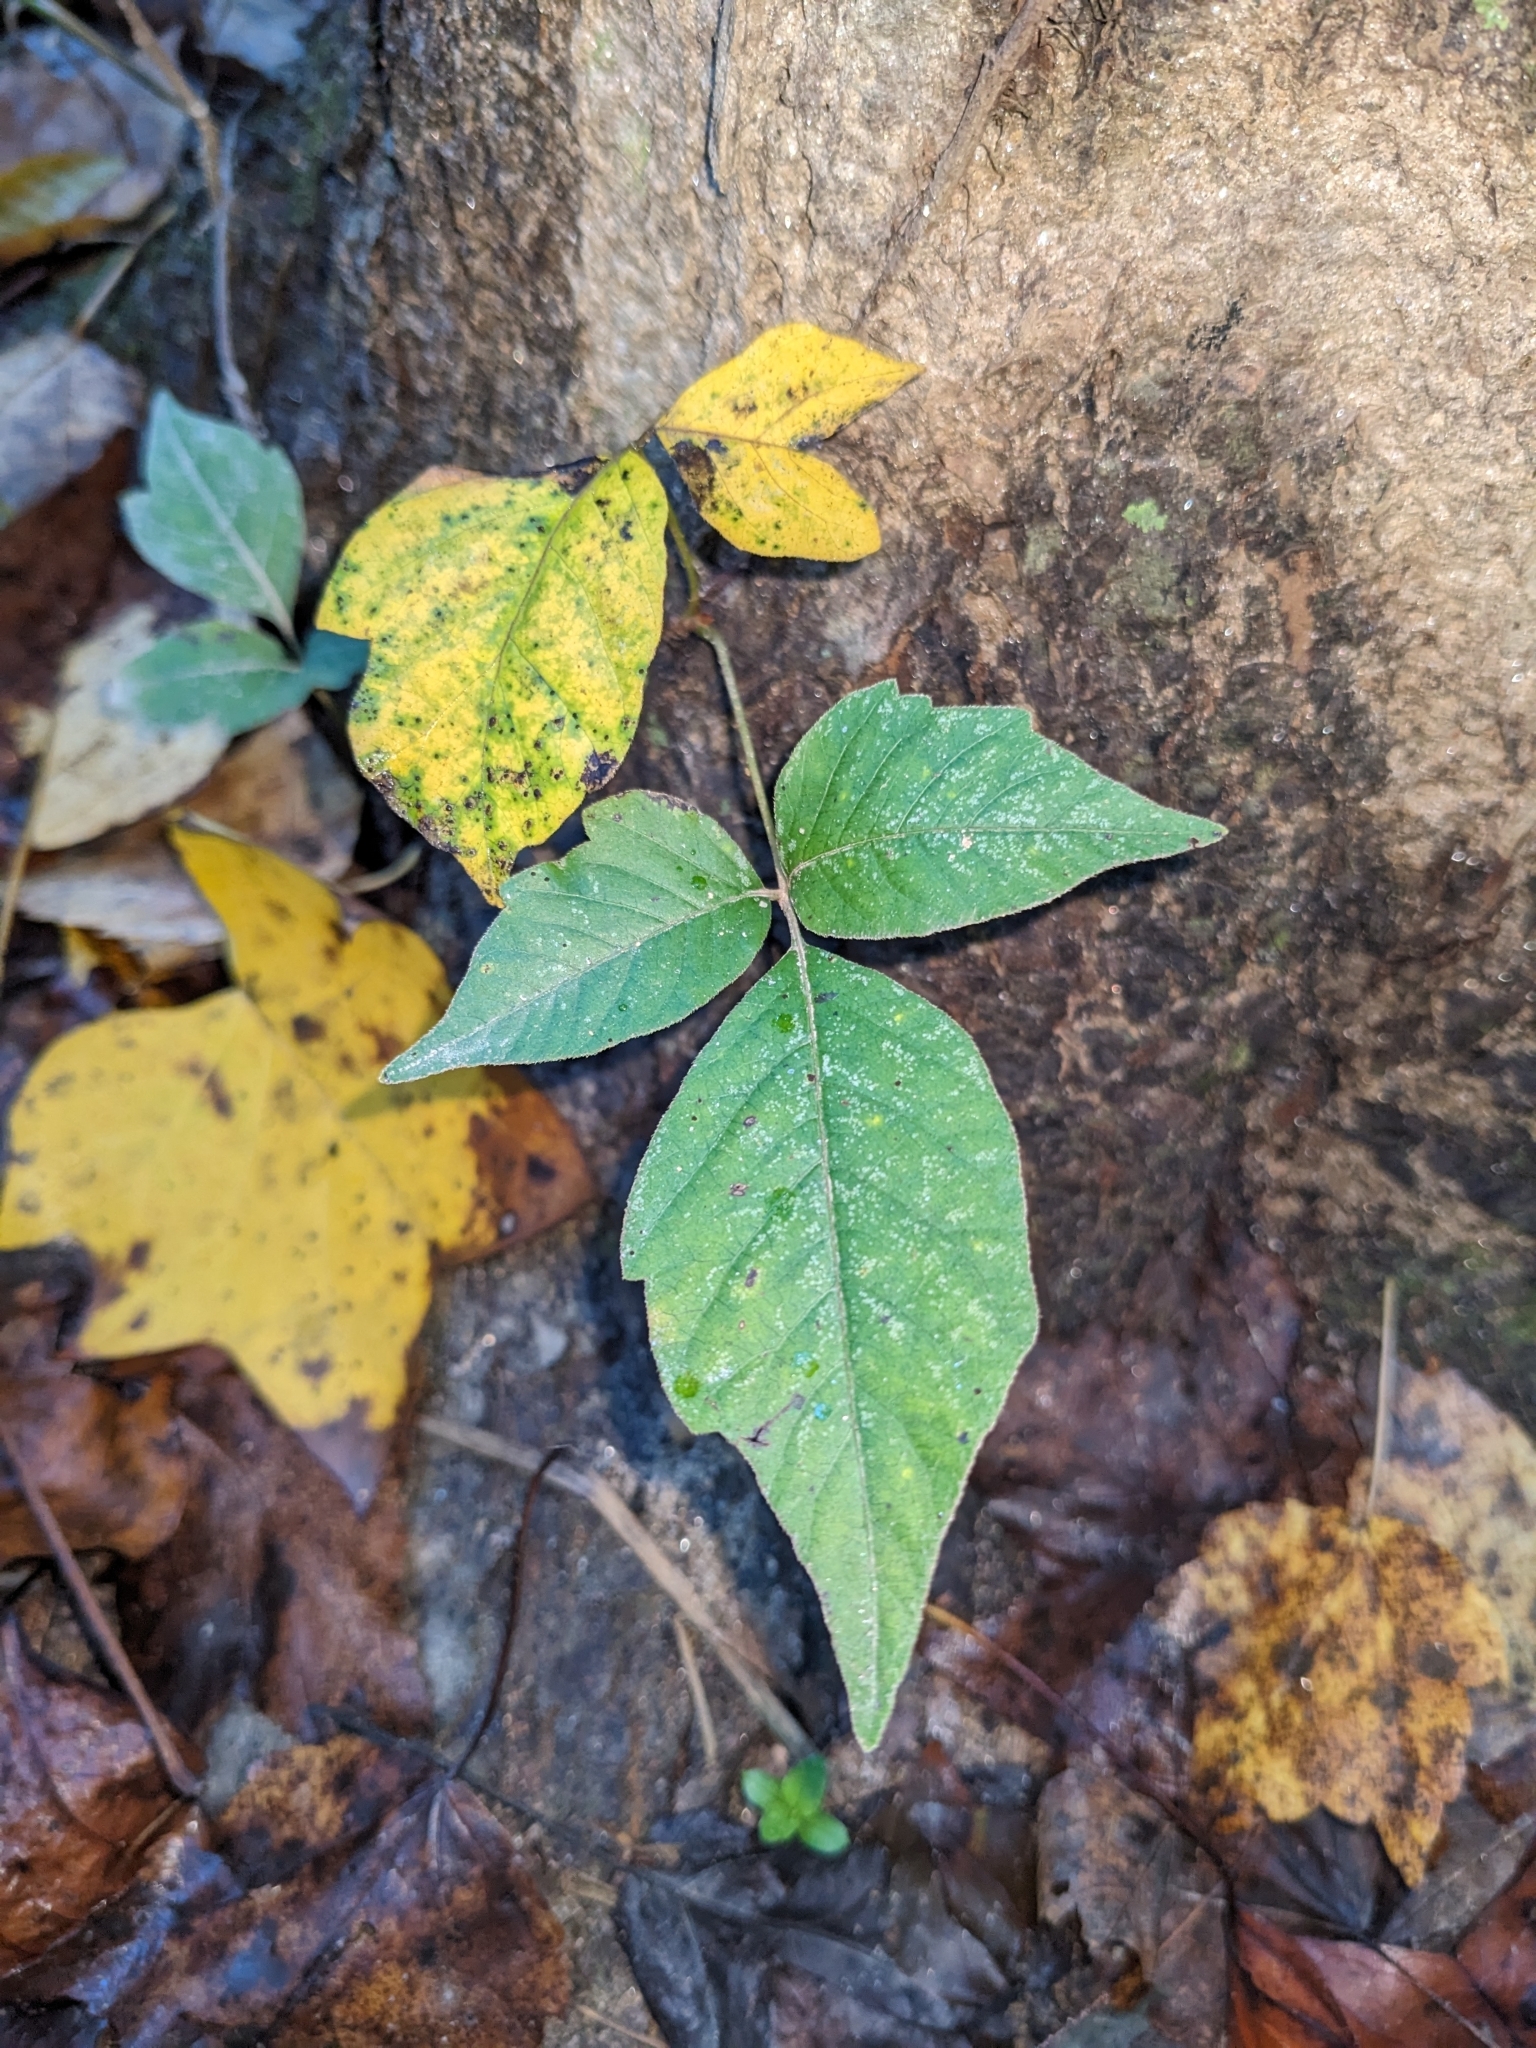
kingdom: Plantae
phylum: Tracheophyta
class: Magnoliopsida
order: Sapindales
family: Anacardiaceae
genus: Toxicodendron
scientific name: Toxicodendron radicans
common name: Poison ivy
